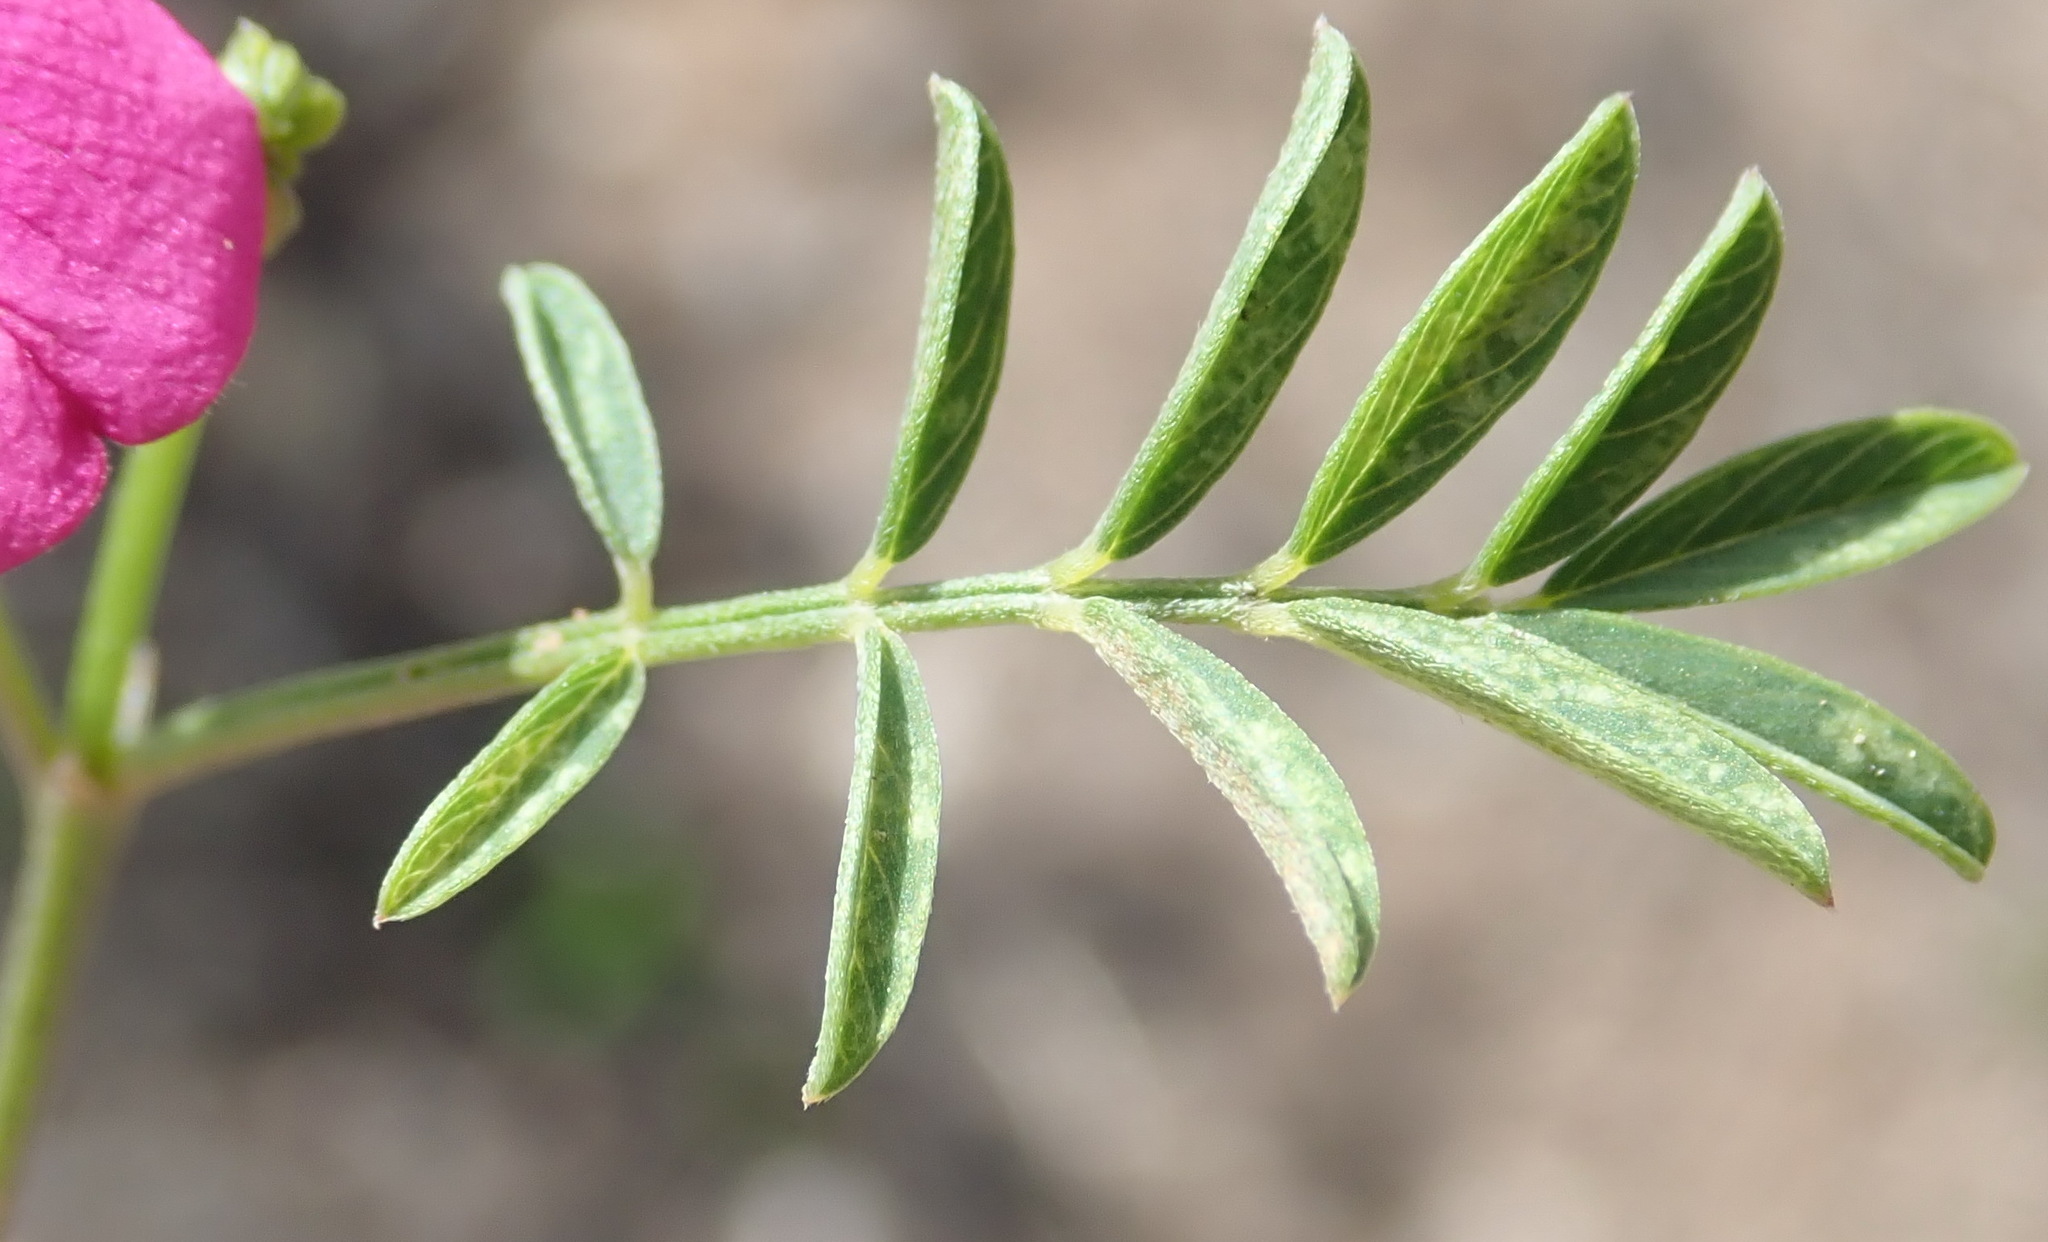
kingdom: Plantae
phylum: Tracheophyta
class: Magnoliopsida
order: Fabales
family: Fabaceae
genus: Tephrosia
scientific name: Tephrosia capensis
